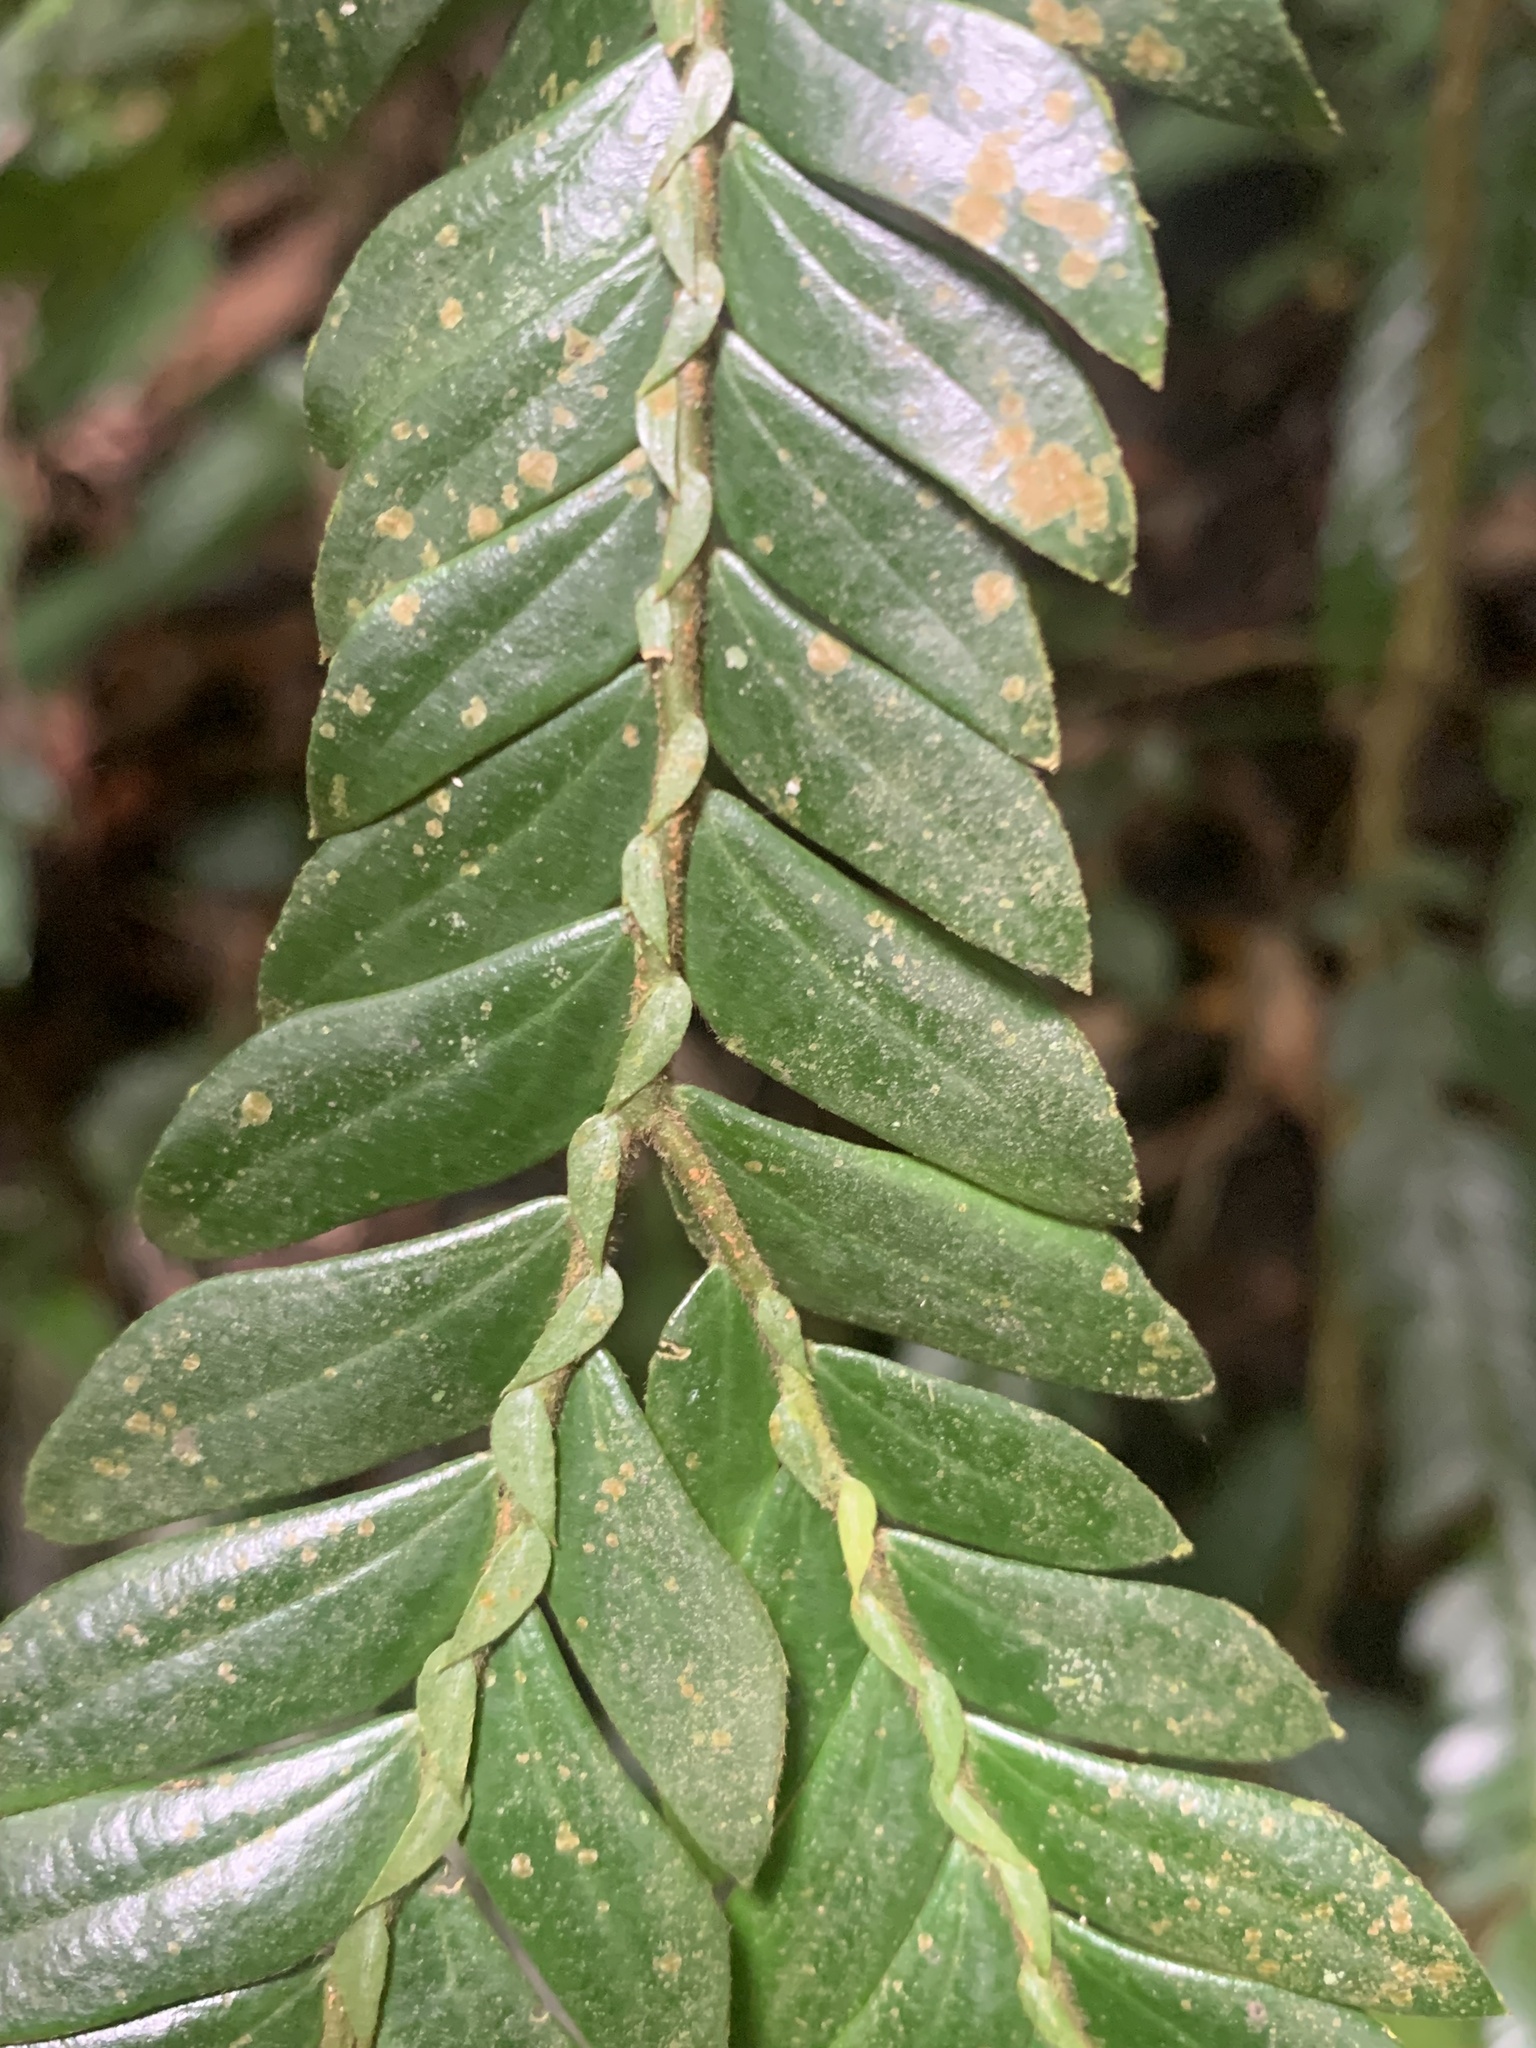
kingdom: Plantae
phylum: Tracheophyta
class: Magnoliopsida
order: Cucurbitales
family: Anisophylleaceae
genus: Anisophyllea
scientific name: Anisophyllea disticha
